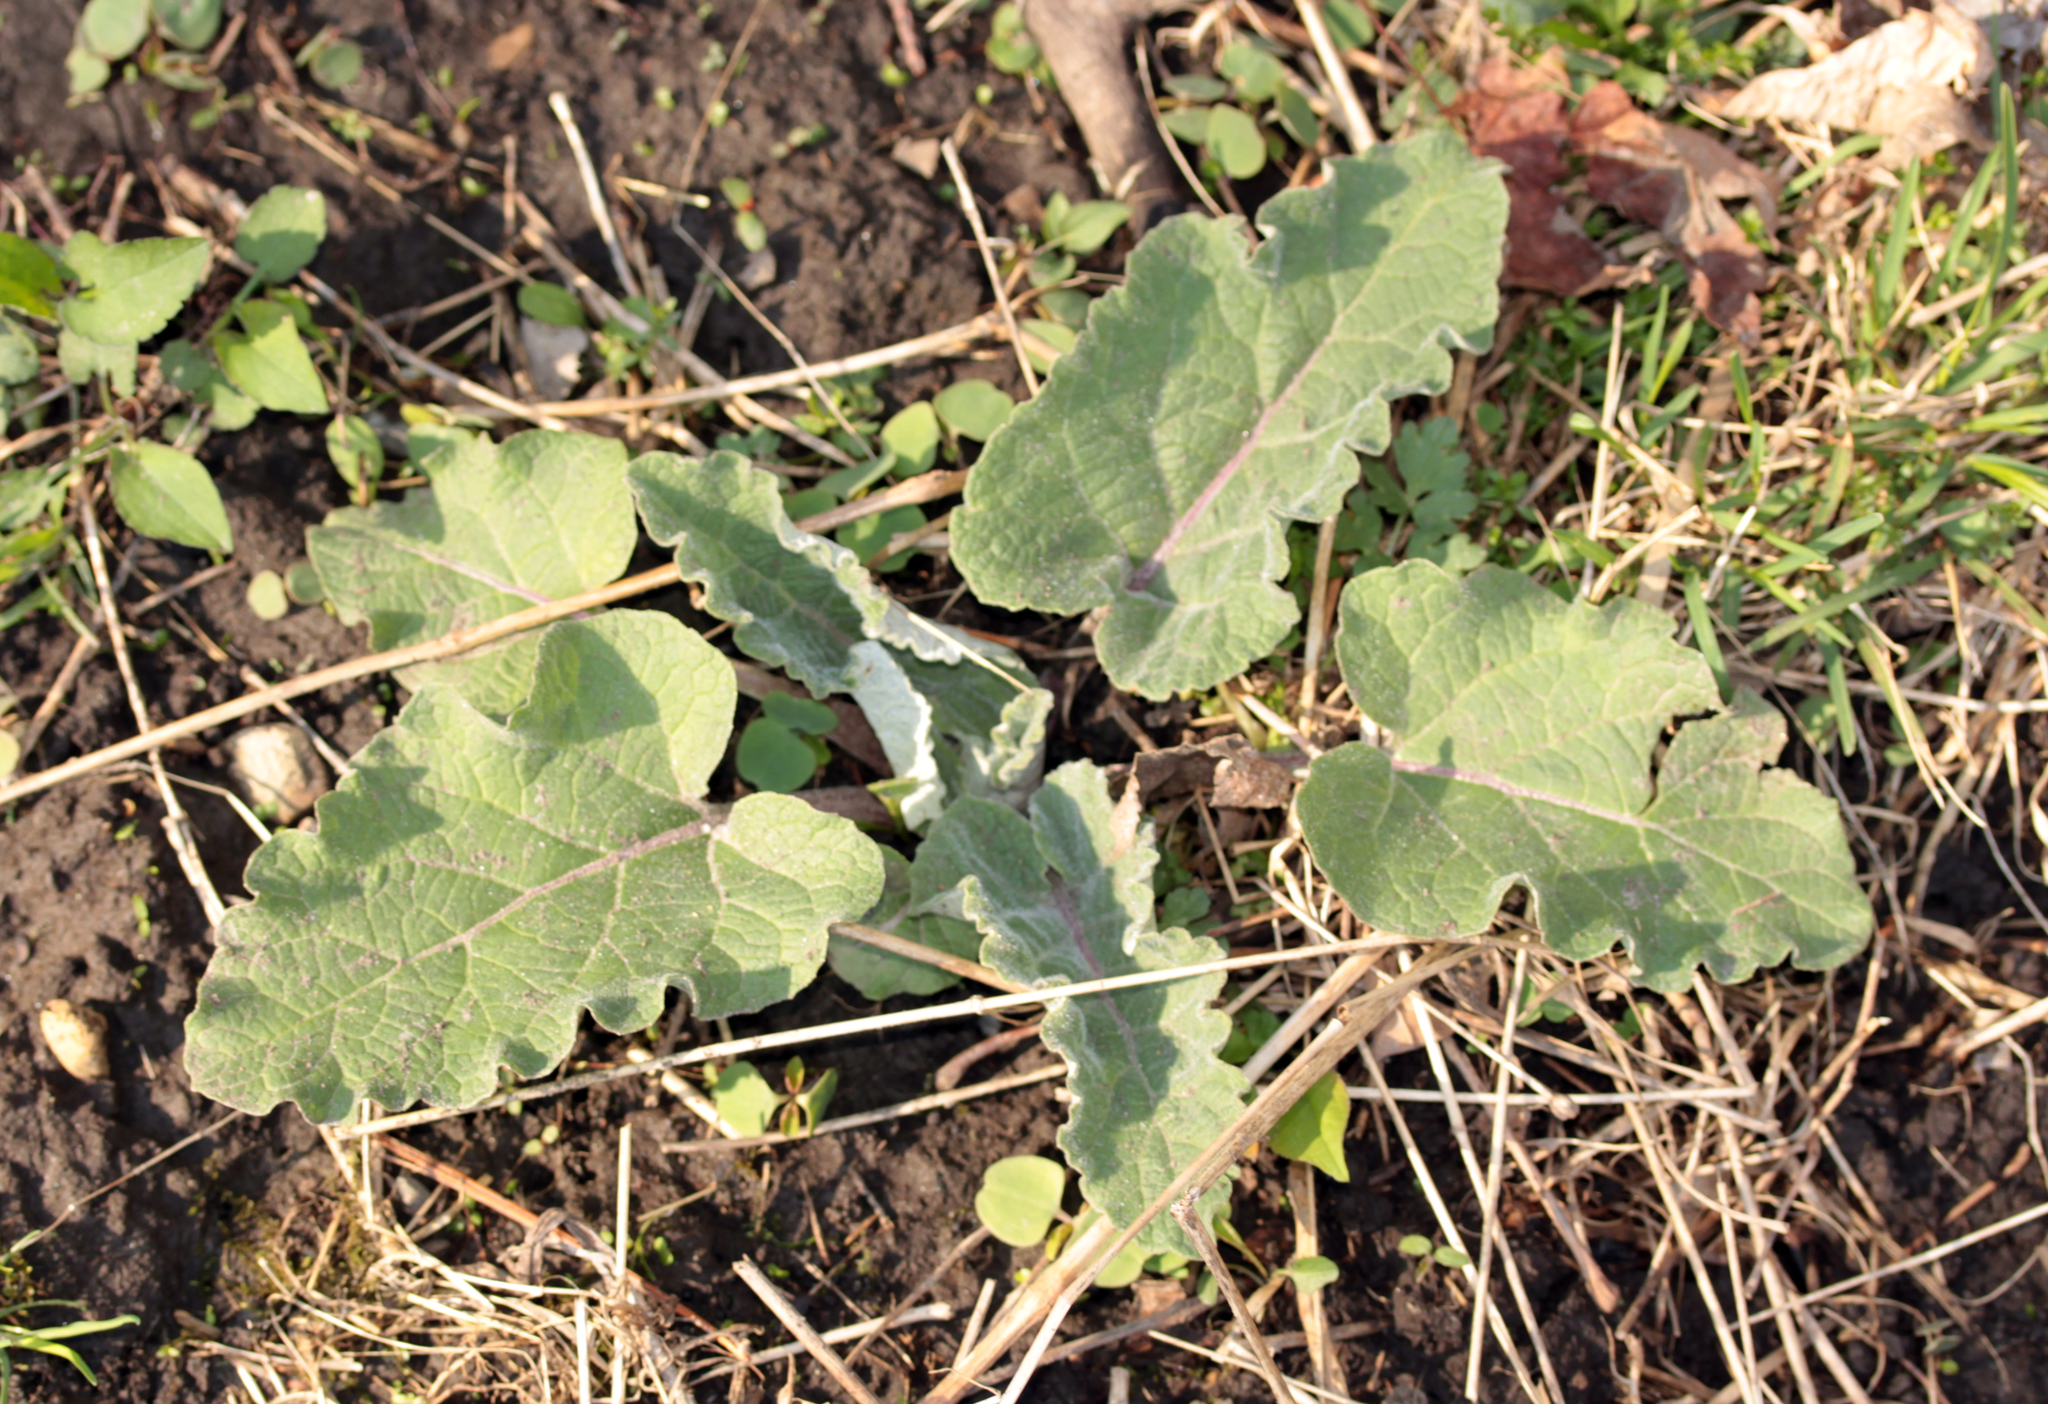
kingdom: Plantae
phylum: Tracheophyta
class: Magnoliopsida
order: Asterales
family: Asteraceae
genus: Arctium
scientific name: Arctium
